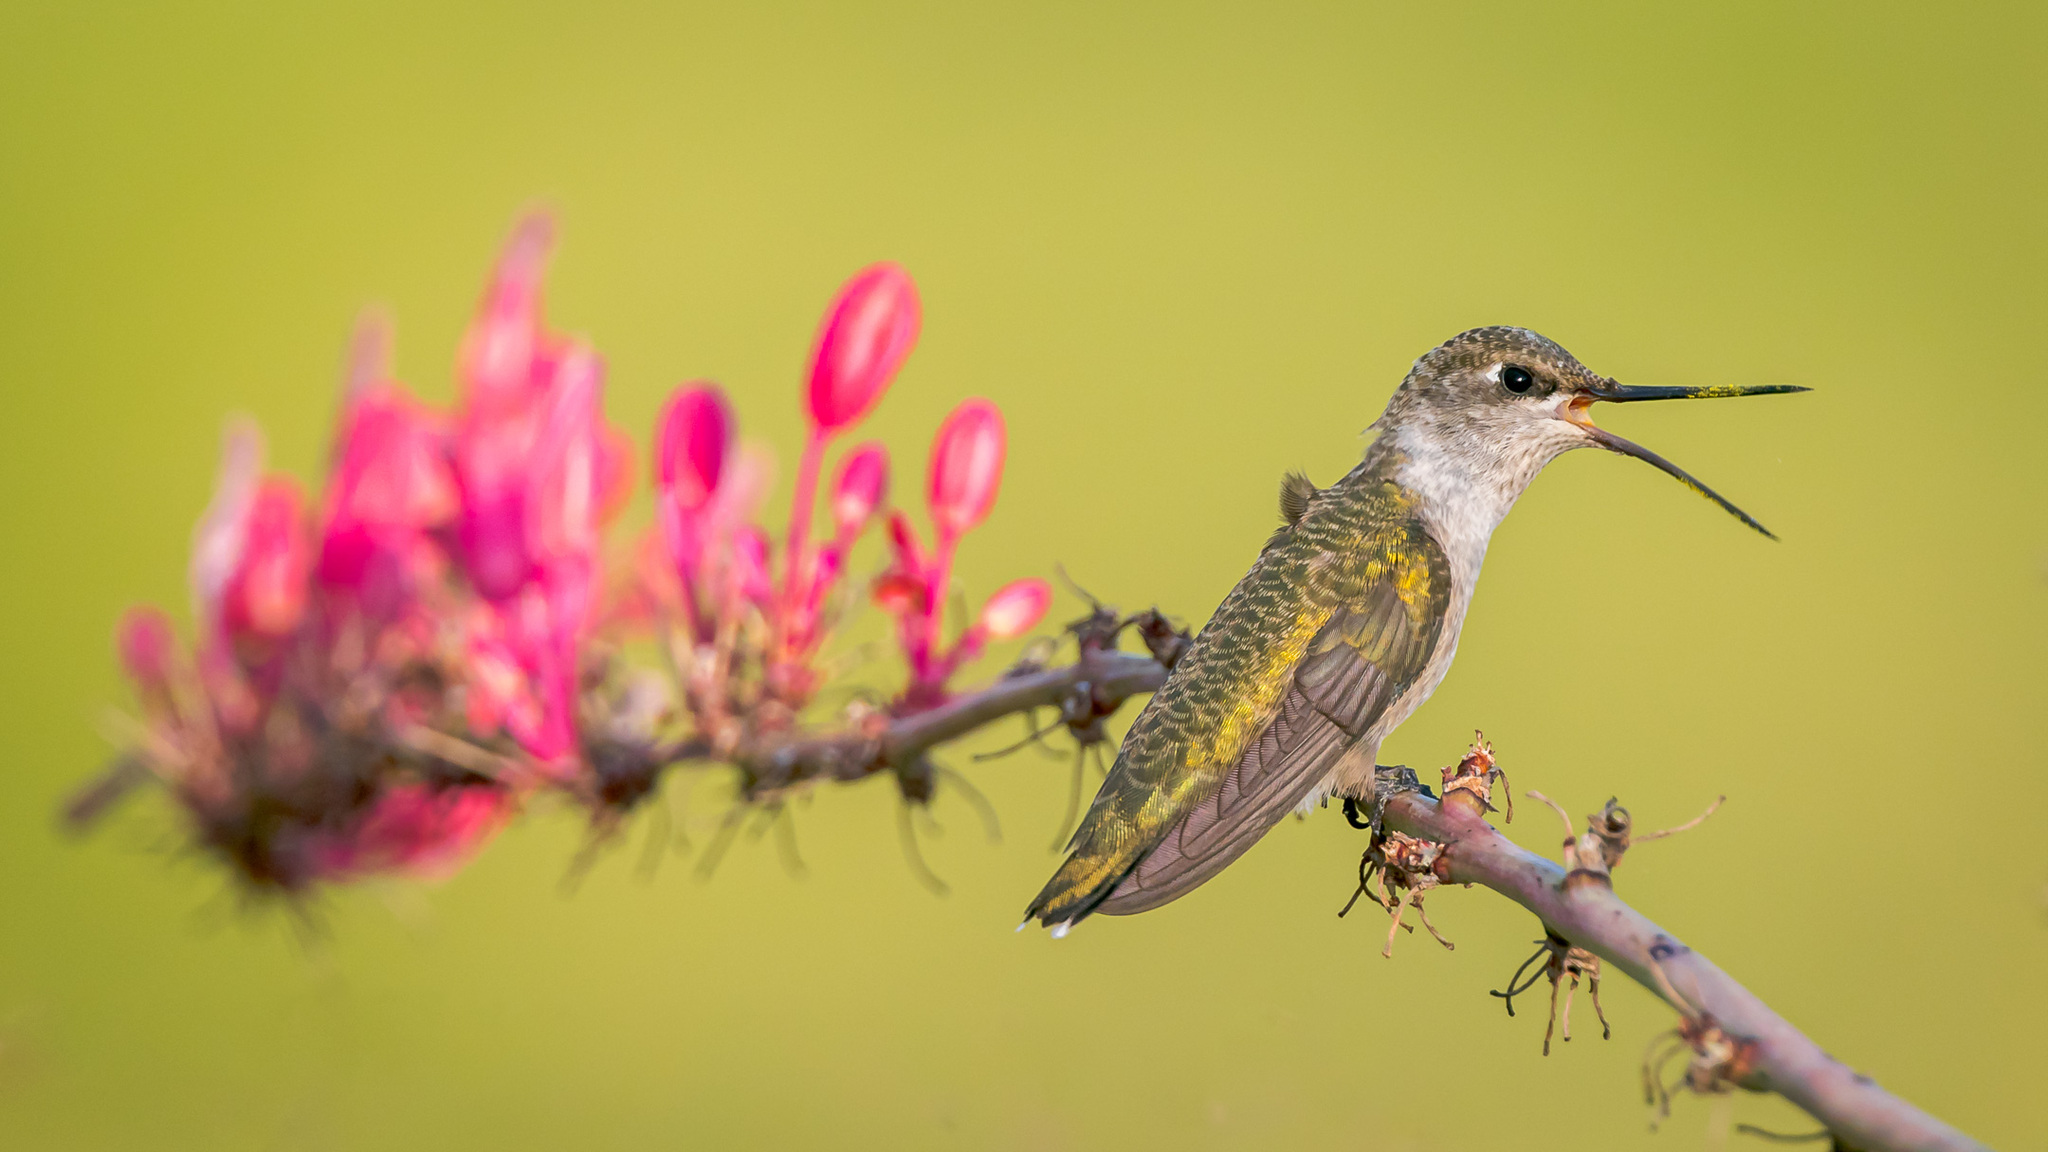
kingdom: Animalia
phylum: Chordata
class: Aves
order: Apodiformes
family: Trochilidae
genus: Archilochus
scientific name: Archilochus alexandri
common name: Black-chinned hummingbird
